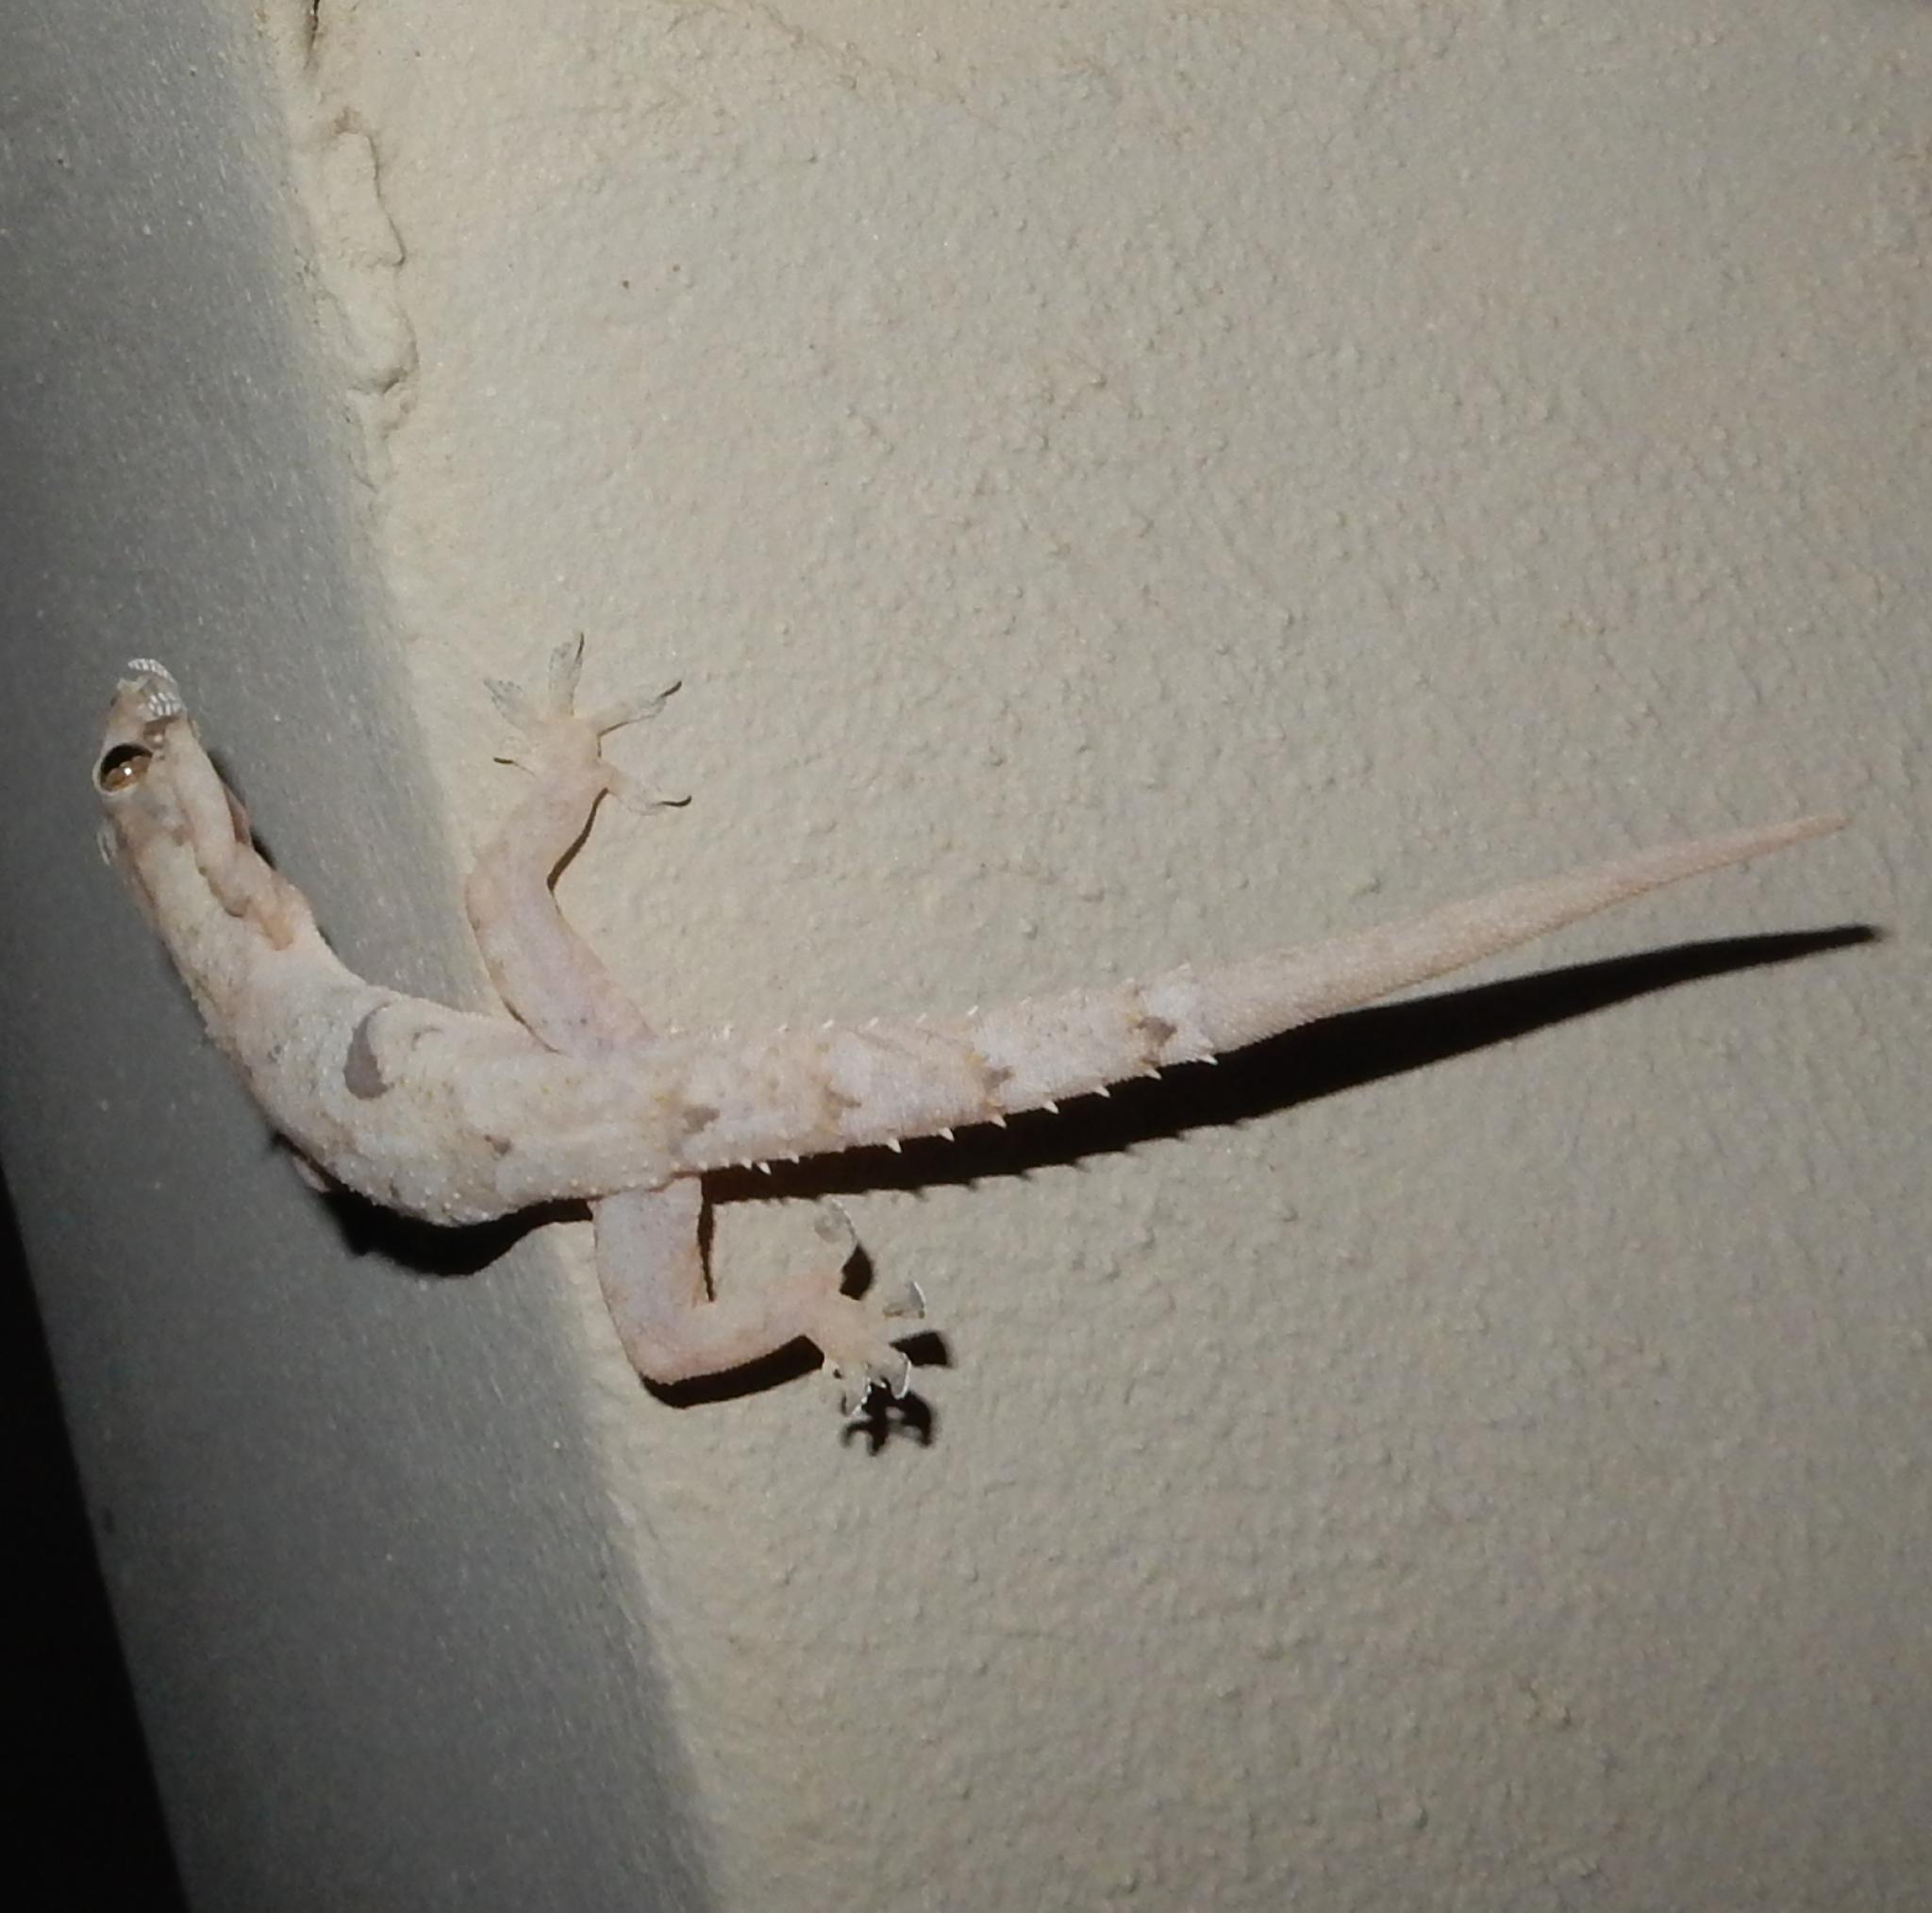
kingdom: Animalia
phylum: Chordata
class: Squamata
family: Gekkonidae
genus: Hemidactylus
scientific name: Hemidactylus mabouia
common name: House gecko
